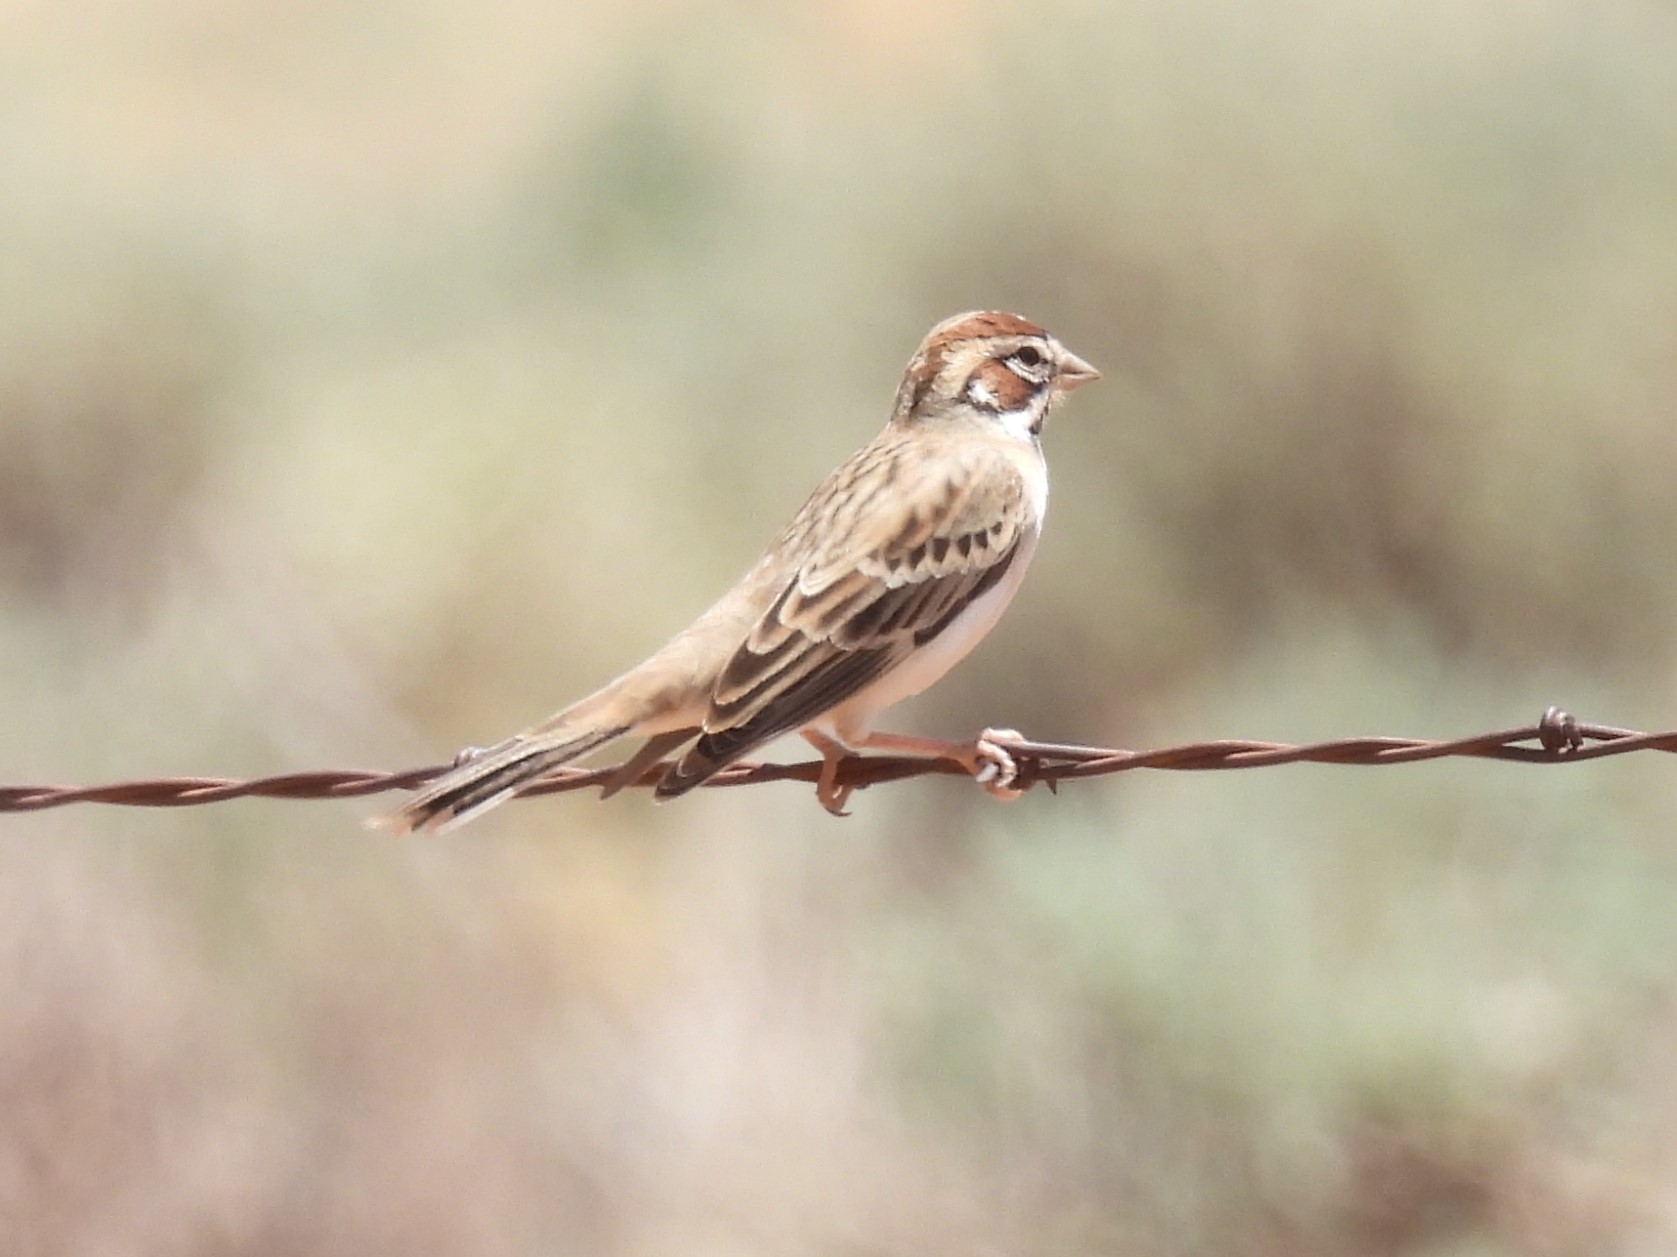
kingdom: Animalia
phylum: Chordata
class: Aves
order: Passeriformes
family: Passerellidae
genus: Chondestes
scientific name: Chondestes grammacus
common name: Lark sparrow
